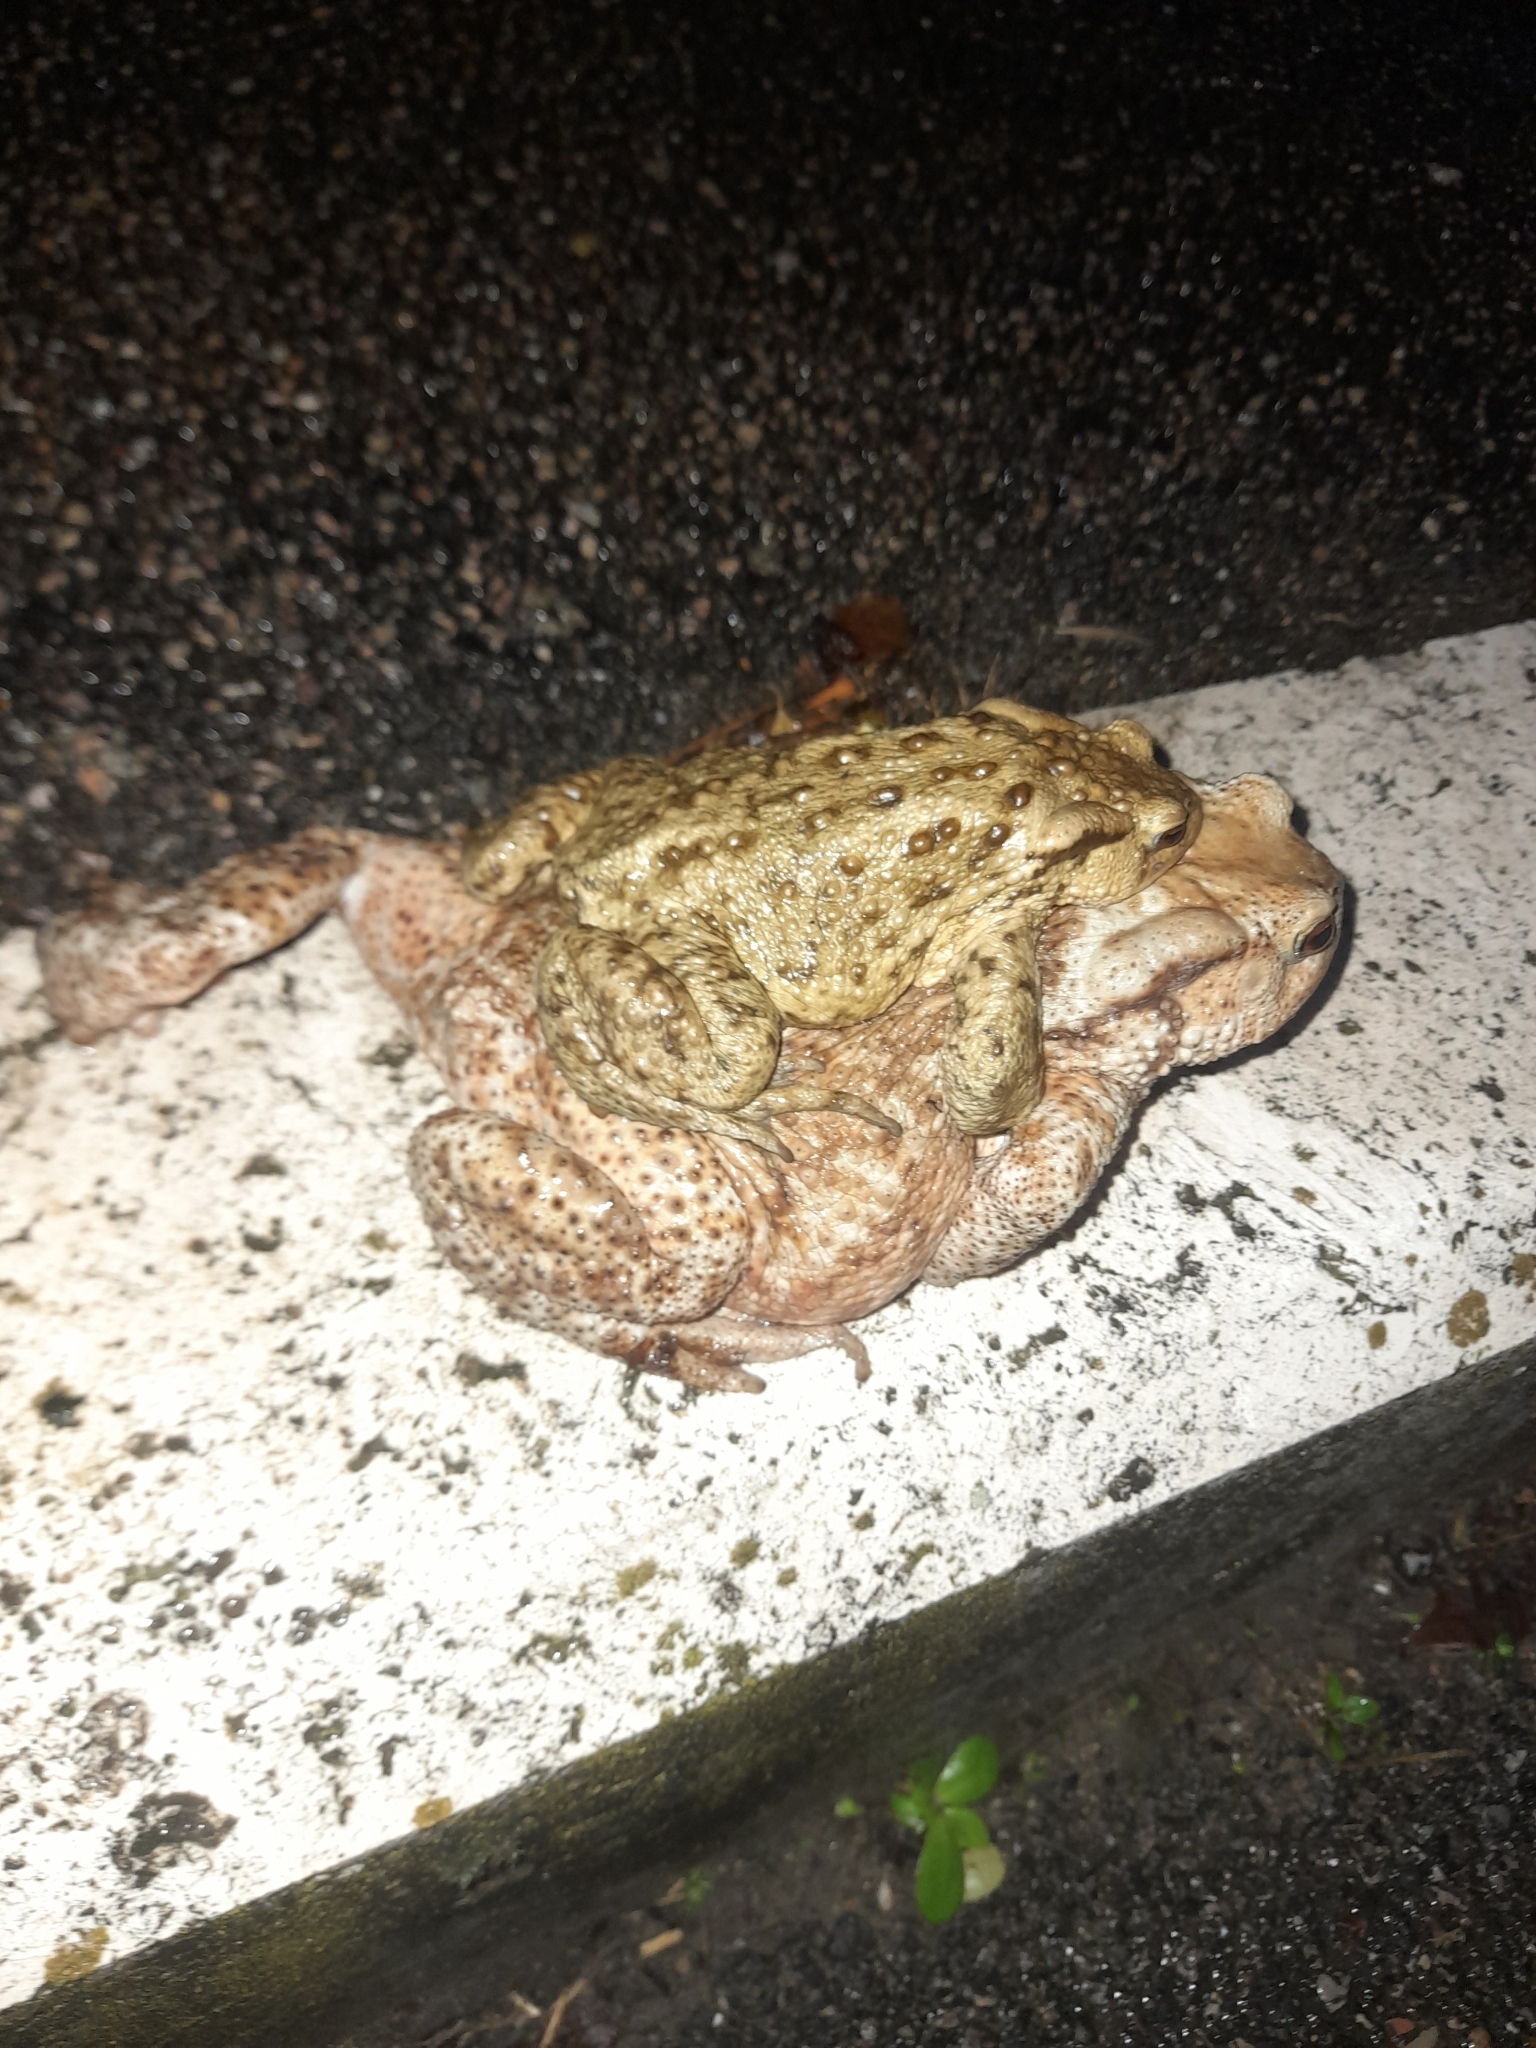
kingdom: Animalia
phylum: Chordata
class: Amphibia
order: Anura
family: Bufonidae
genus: Bufo
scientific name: Bufo bufo
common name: Common toad
